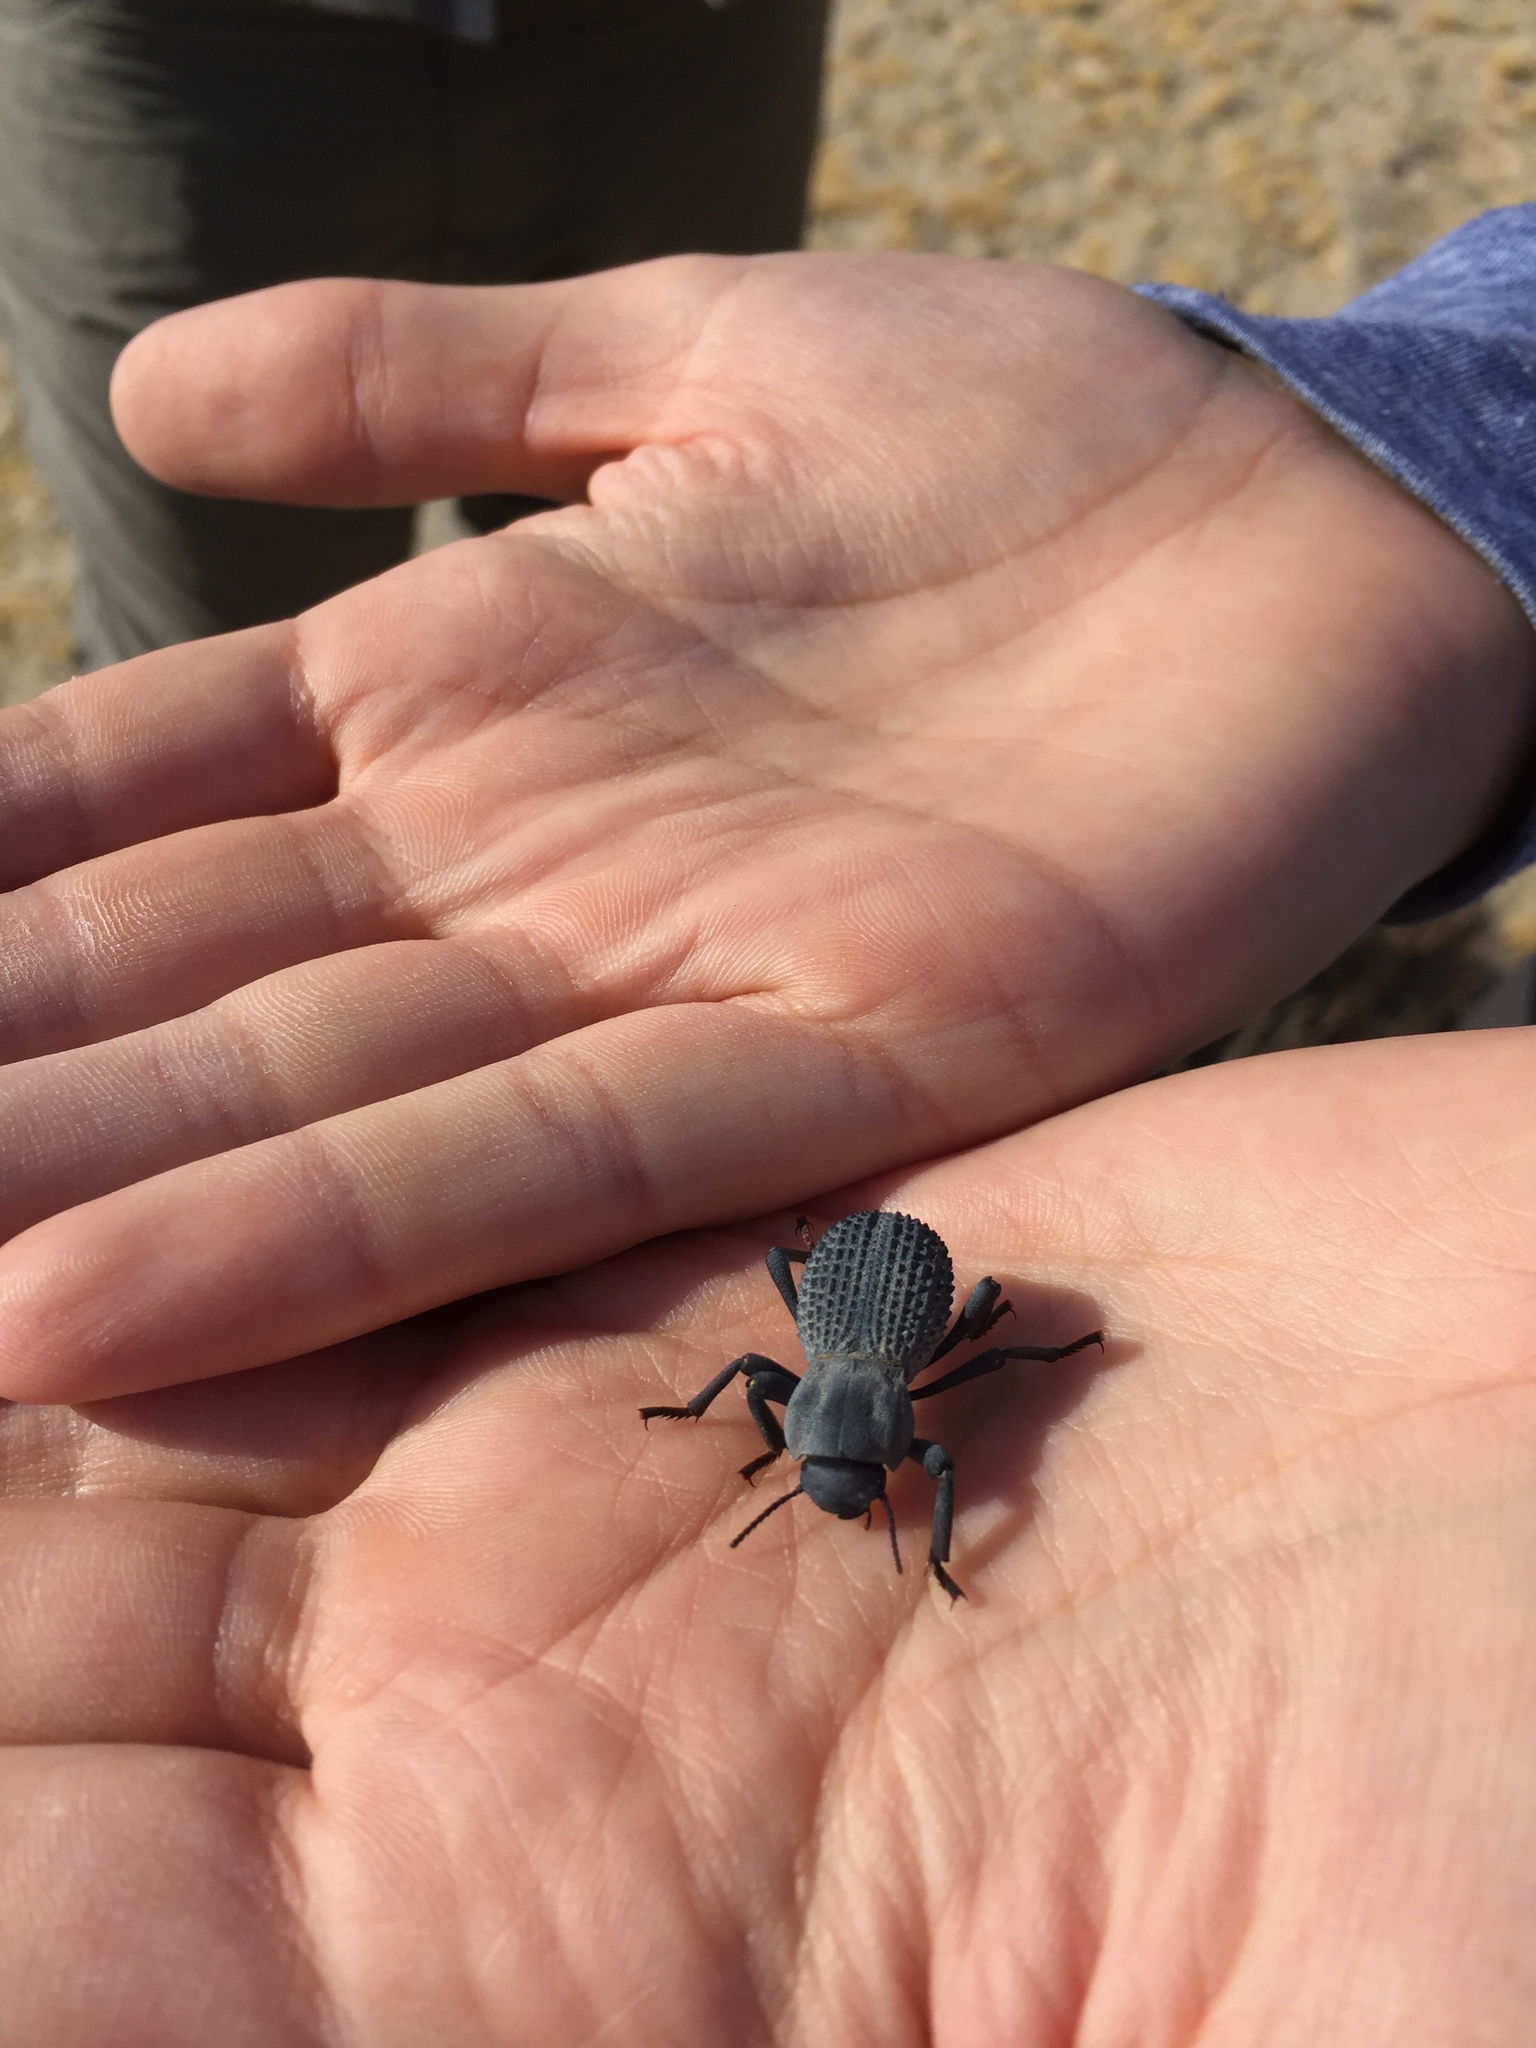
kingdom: Animalia
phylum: Arthropoda
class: Insecta
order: Coleoptera
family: Tenebrionidae
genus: Asbolus
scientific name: Asbolus verrucosus
